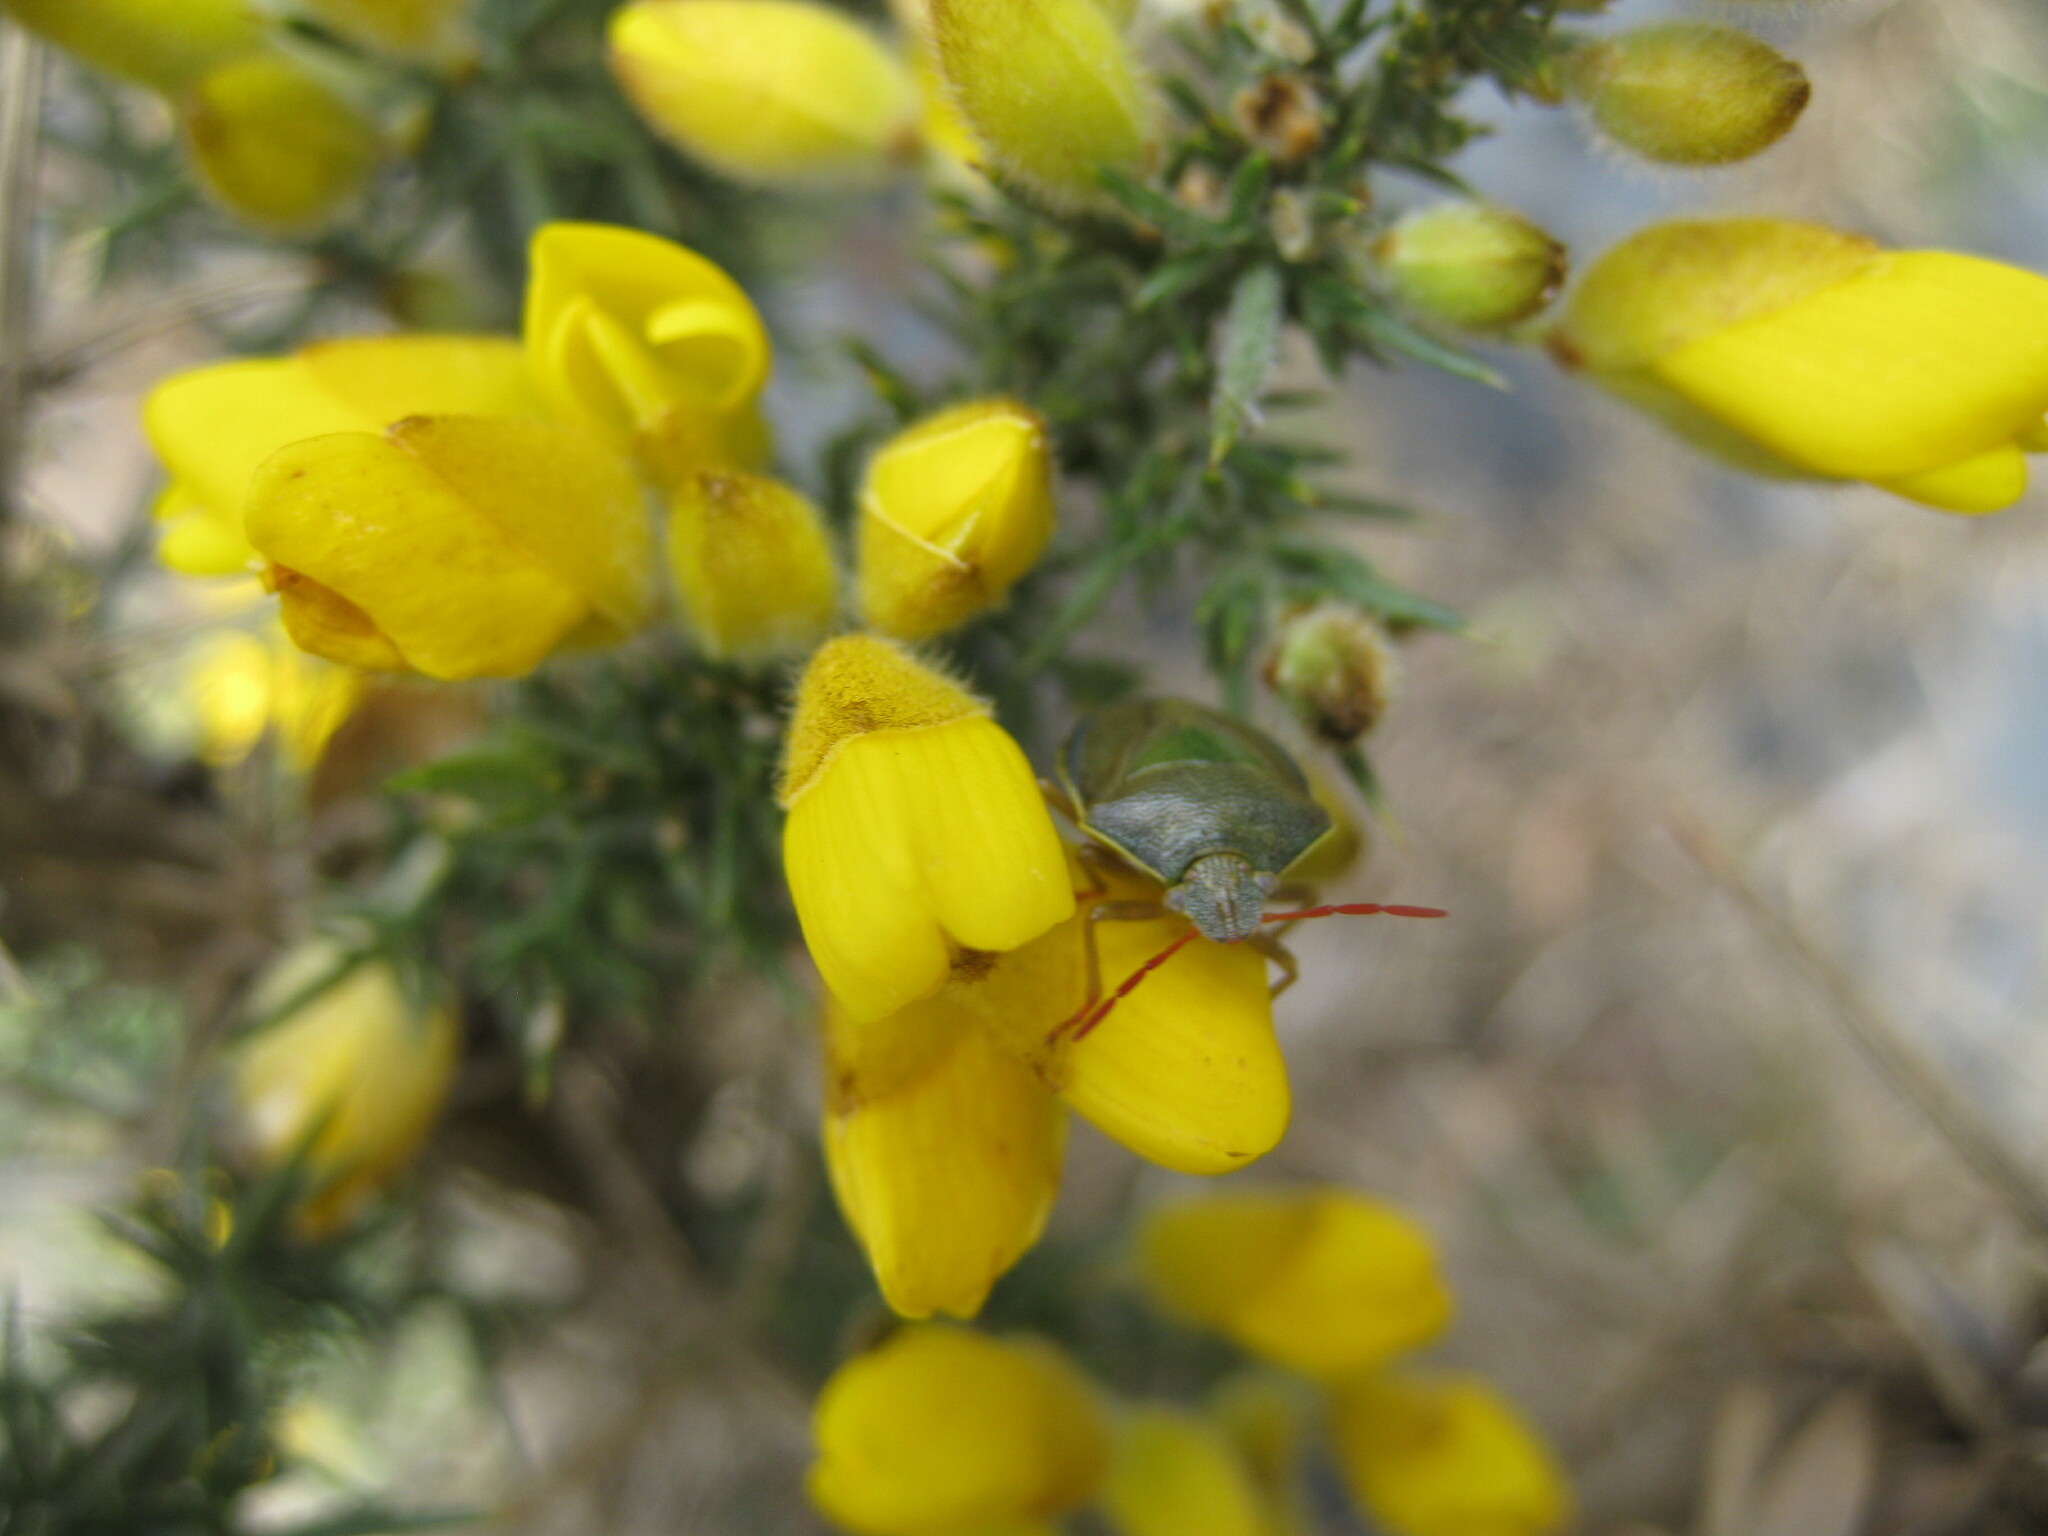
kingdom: Animalia
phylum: Arthropoda
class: Insecta
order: Hemiptera
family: Pentatomidae
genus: Piezodorus
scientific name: Piezodorus lituratus
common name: Stink bug
